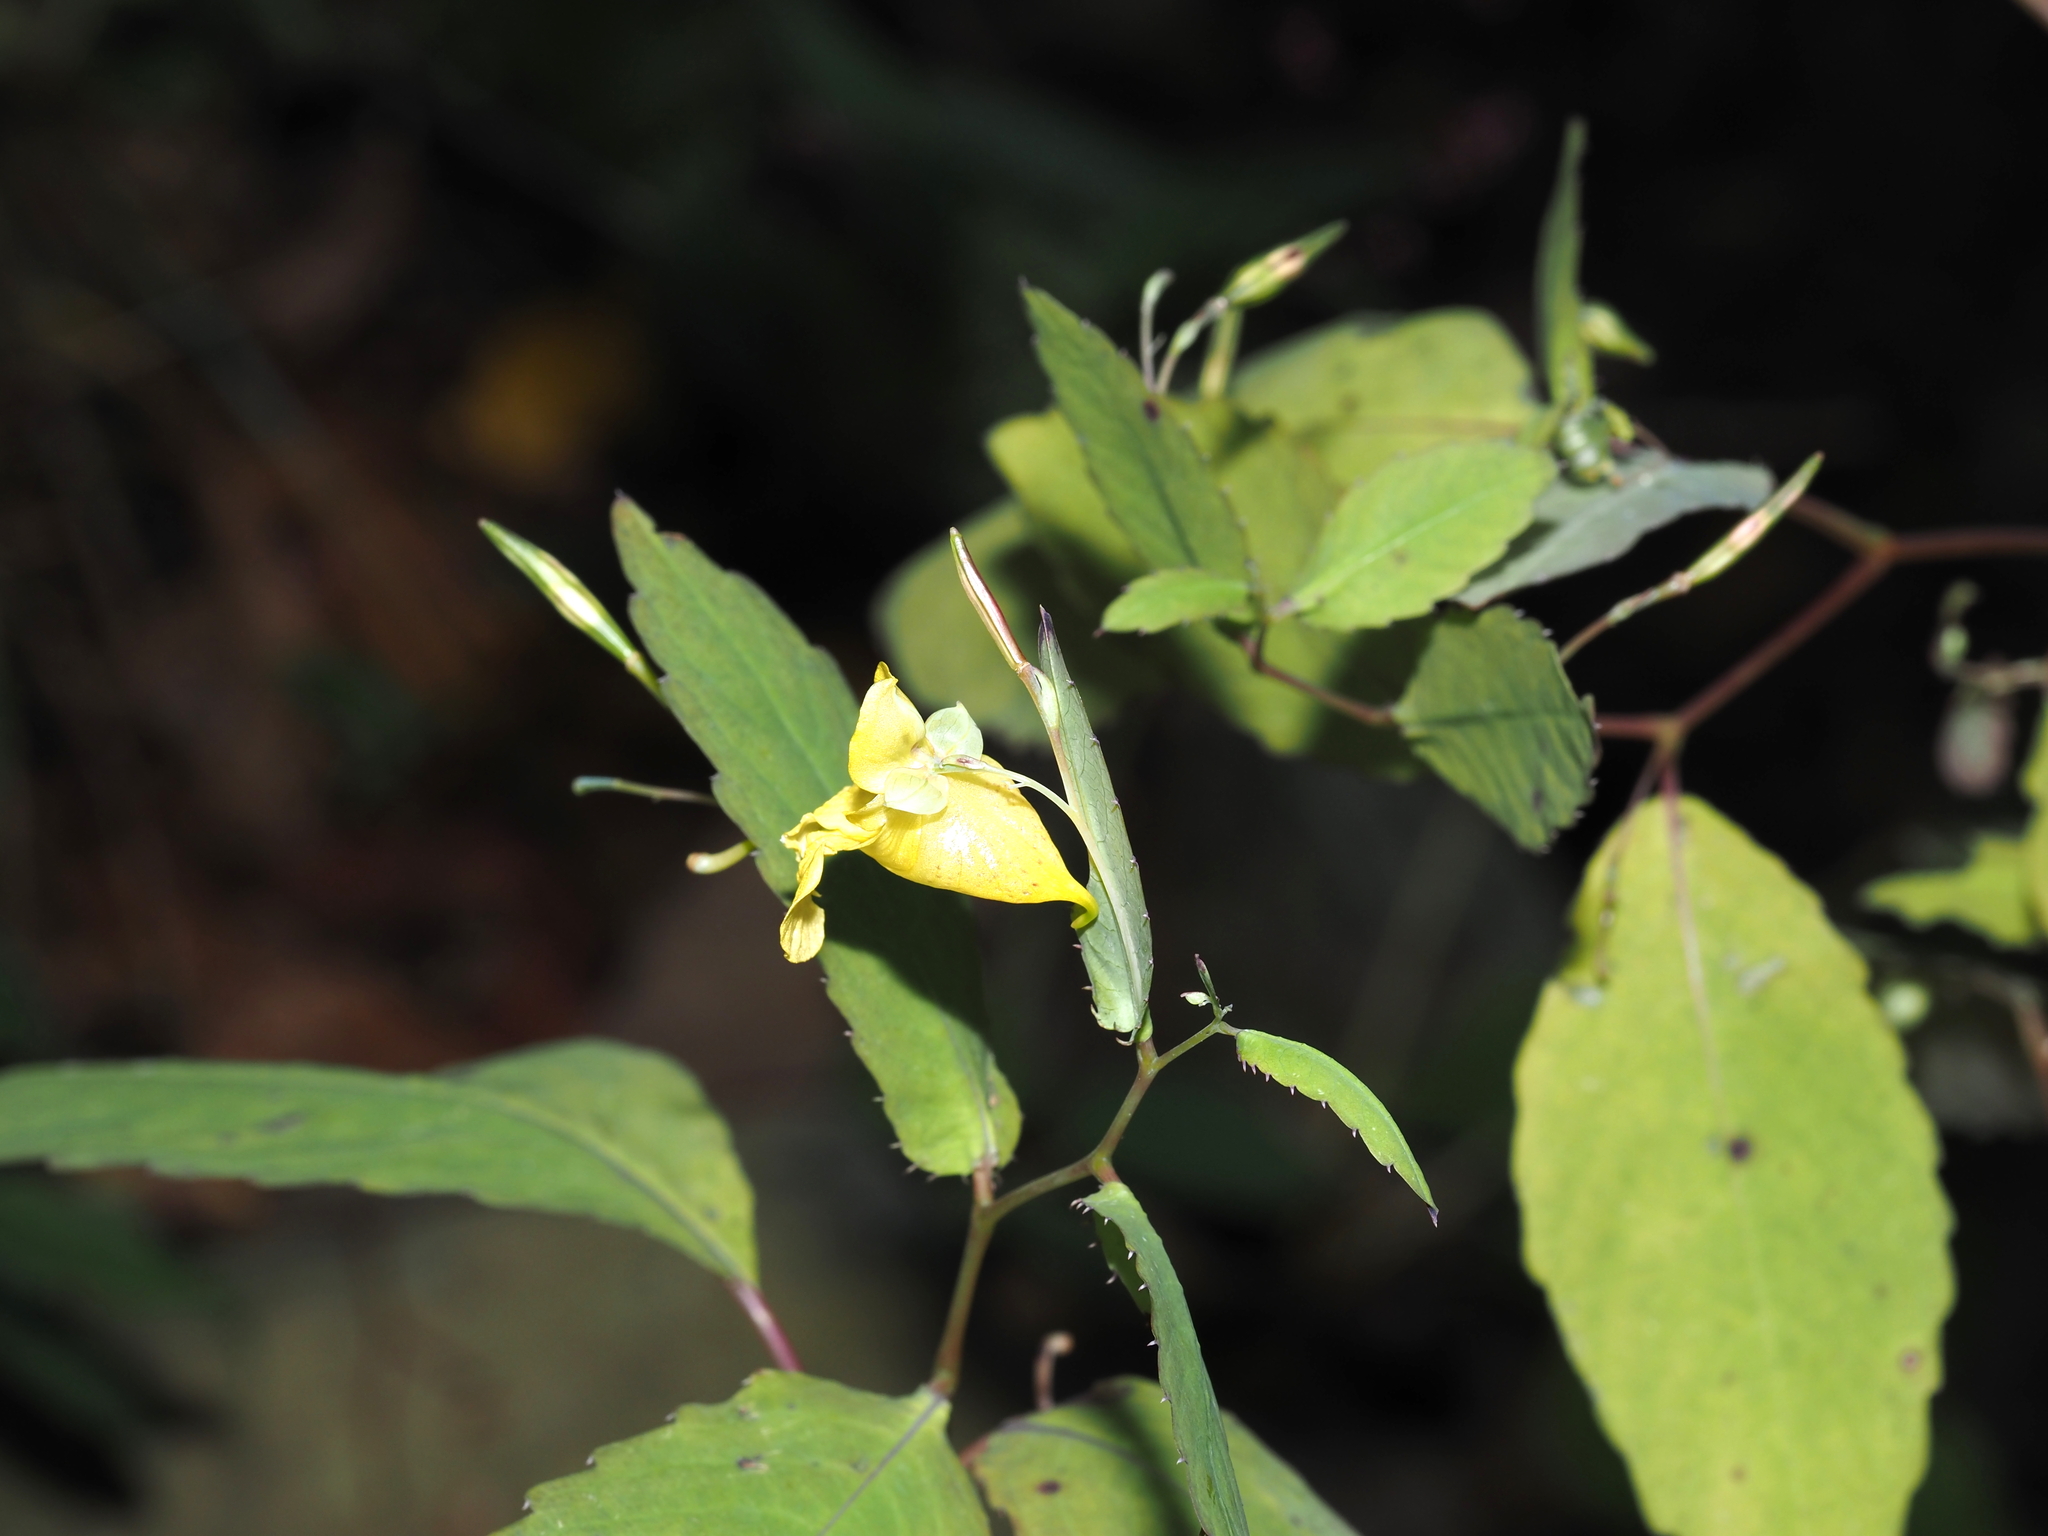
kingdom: Plantae
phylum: Tracheophyta
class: Magnoliopsida
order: Ericales
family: Balsaminaceae
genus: Impatiens
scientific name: Impatiens pallida
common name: Pale snapweed
